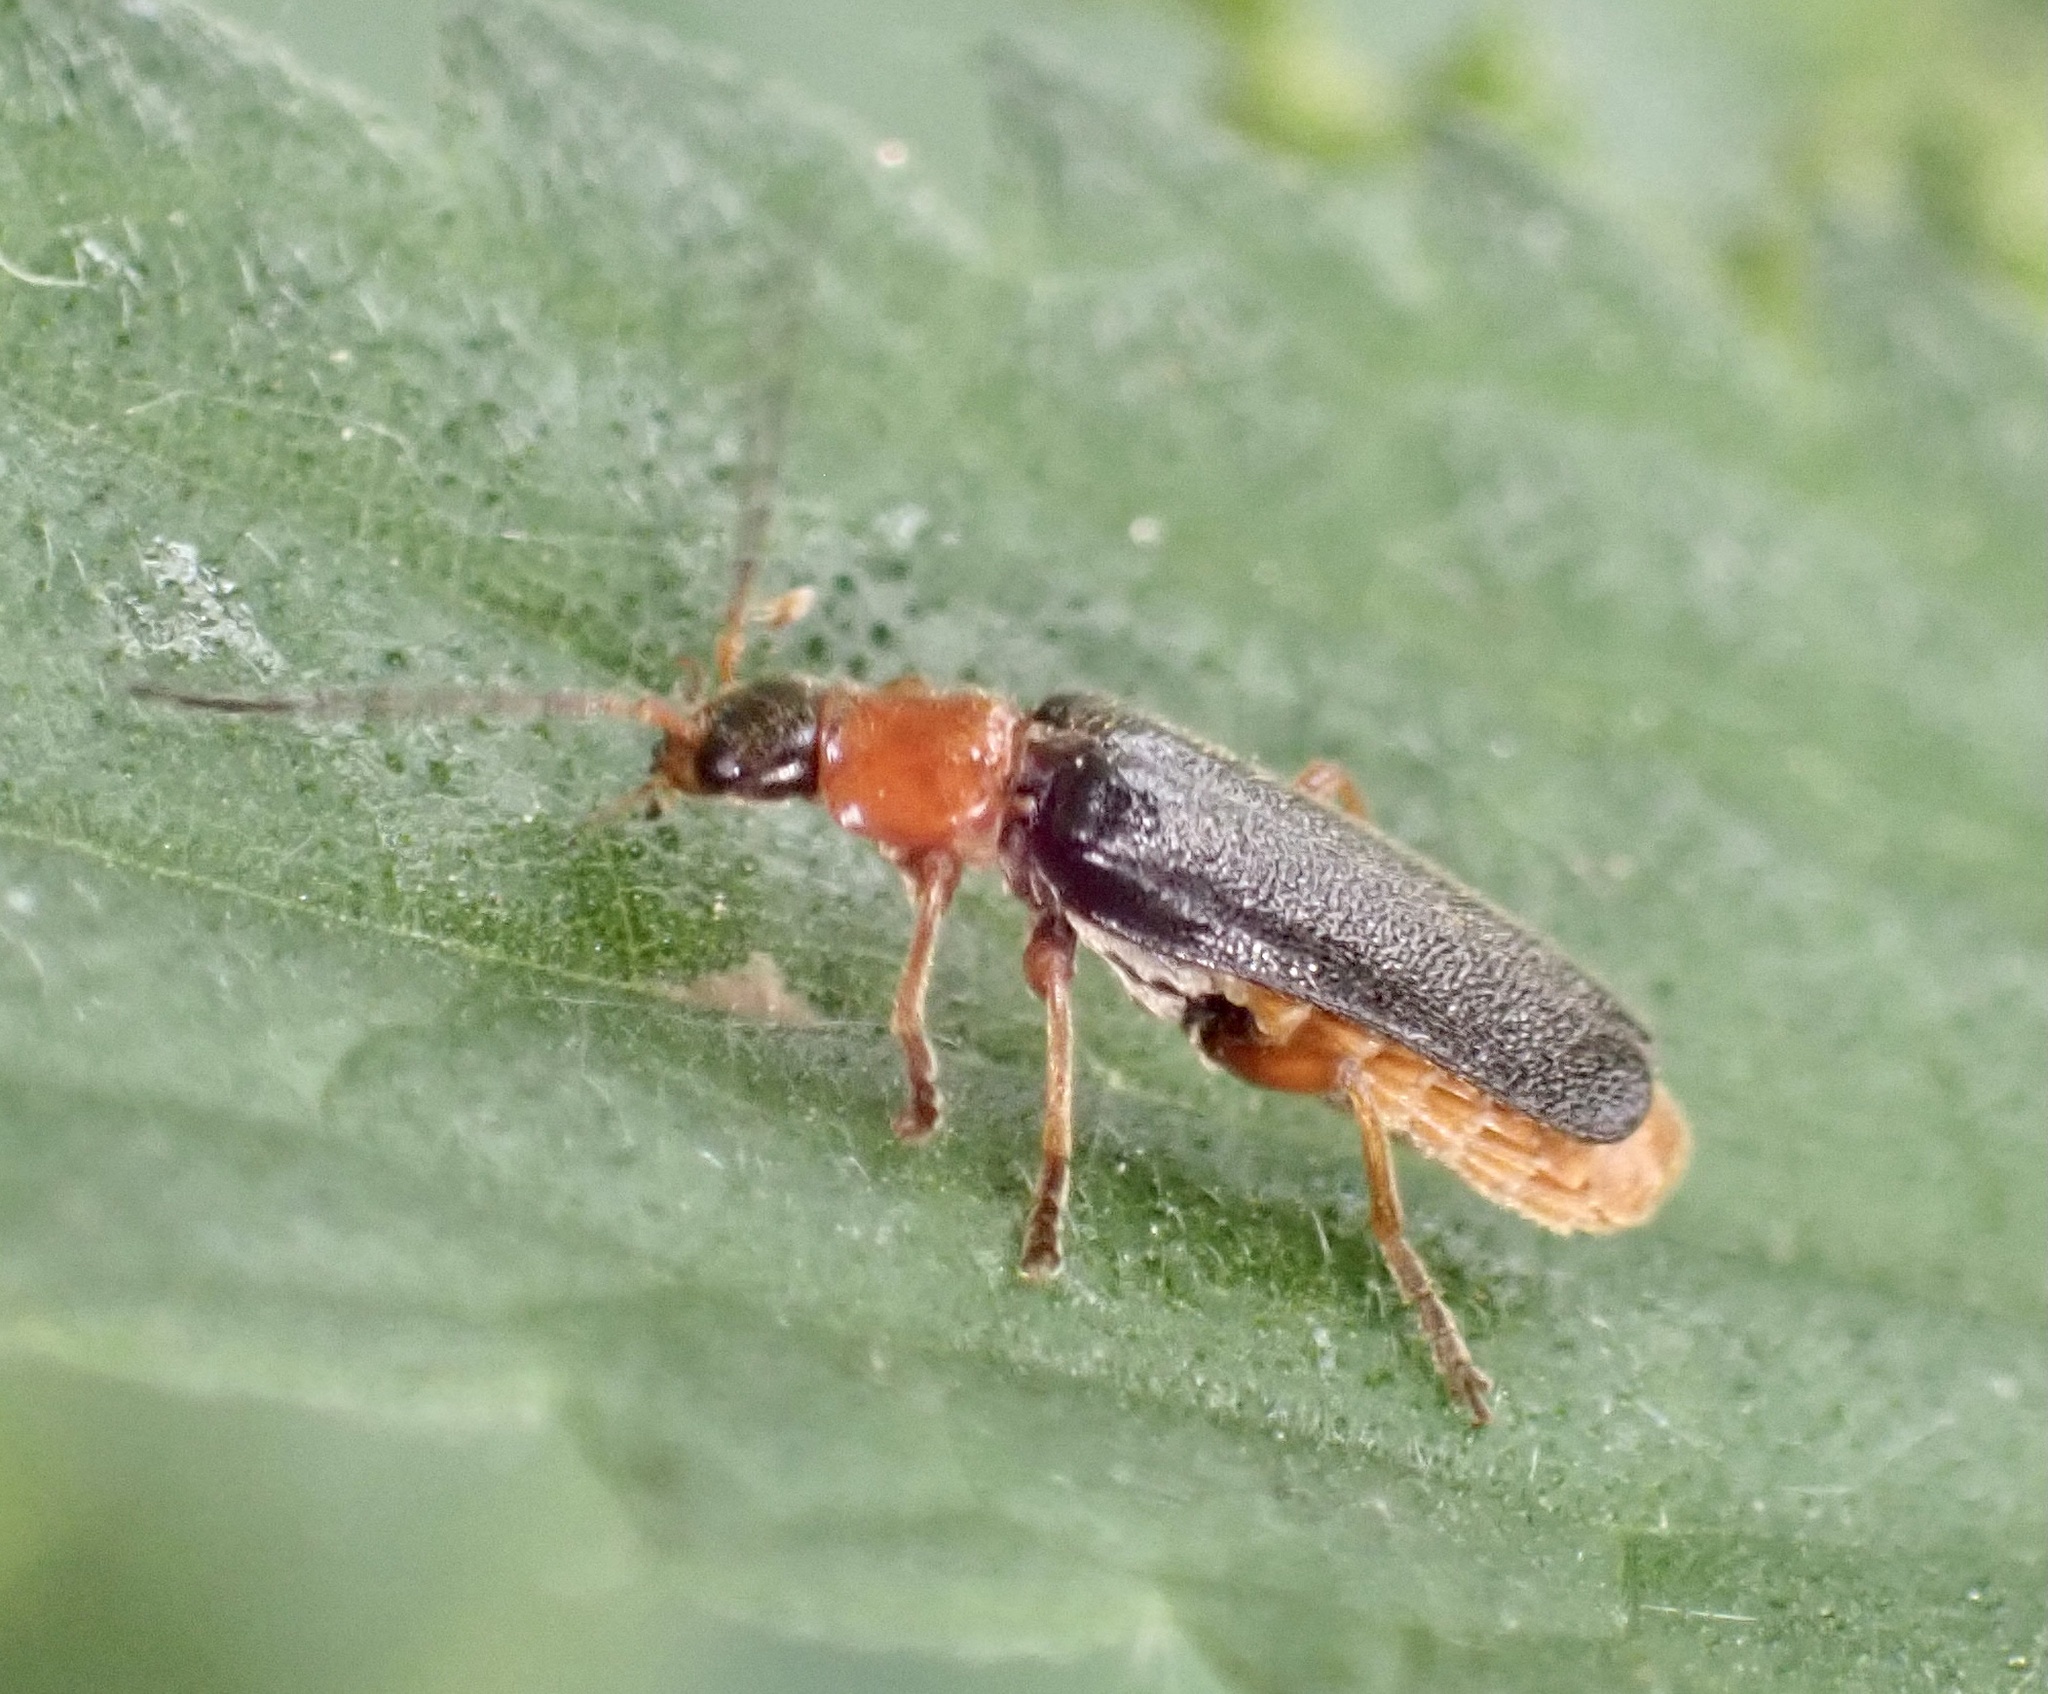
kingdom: Animalia
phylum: Arthropoda
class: Insecta
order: Coleoptera
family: Cantharidae
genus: Cantharis
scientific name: Cantharis flavilabris
